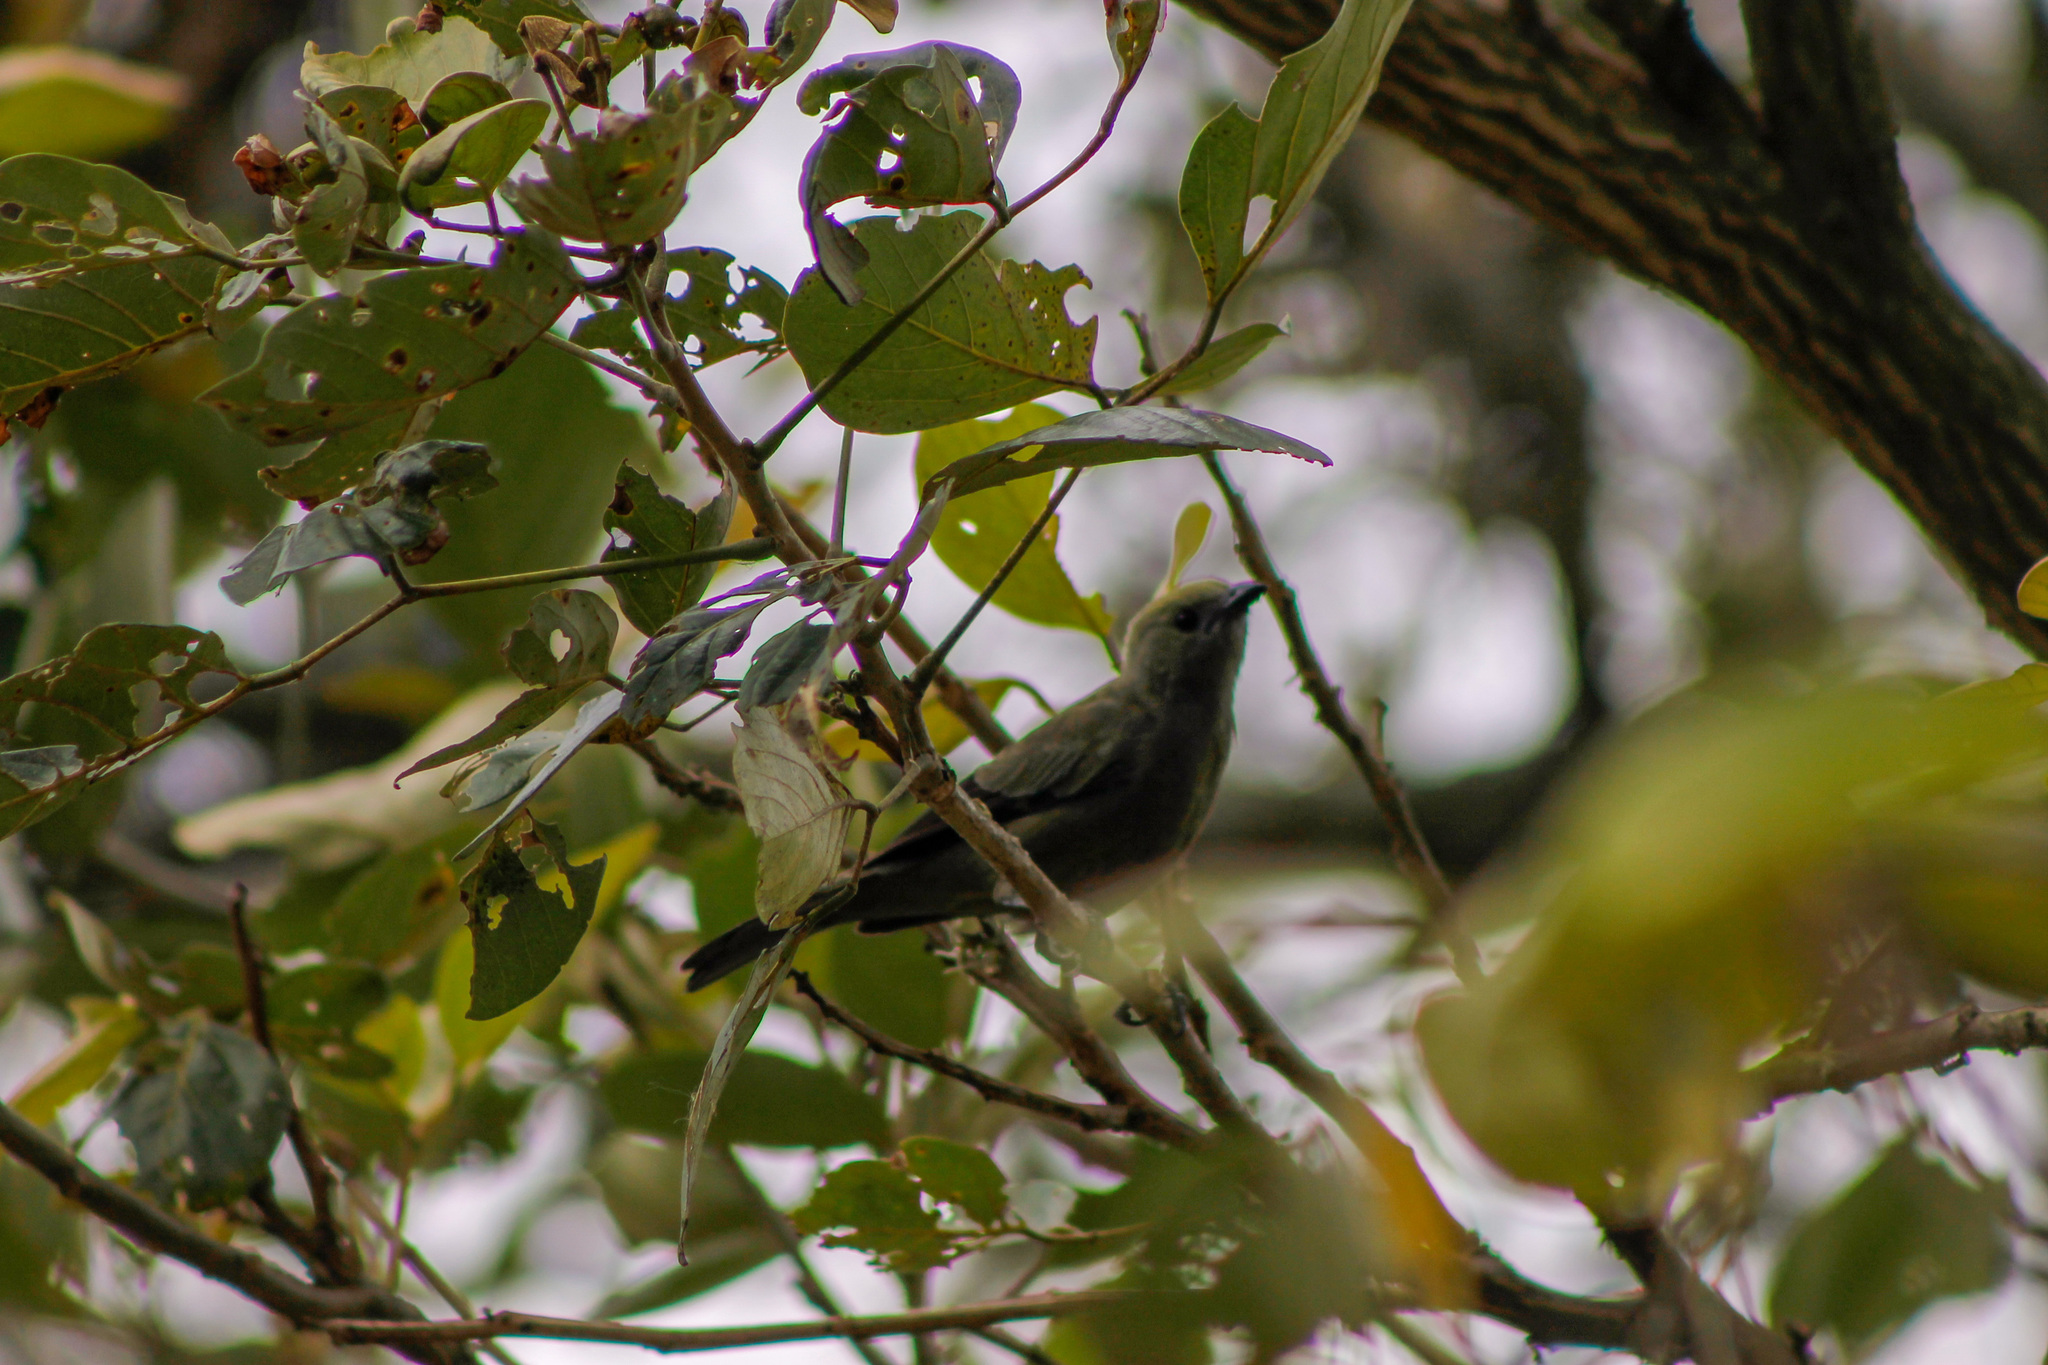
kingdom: Animalia
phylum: Chordata
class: Aves
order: Passeriformes
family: Thraupidae
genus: Thraupis
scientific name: Thraupis palmarum
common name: Palm tanager
